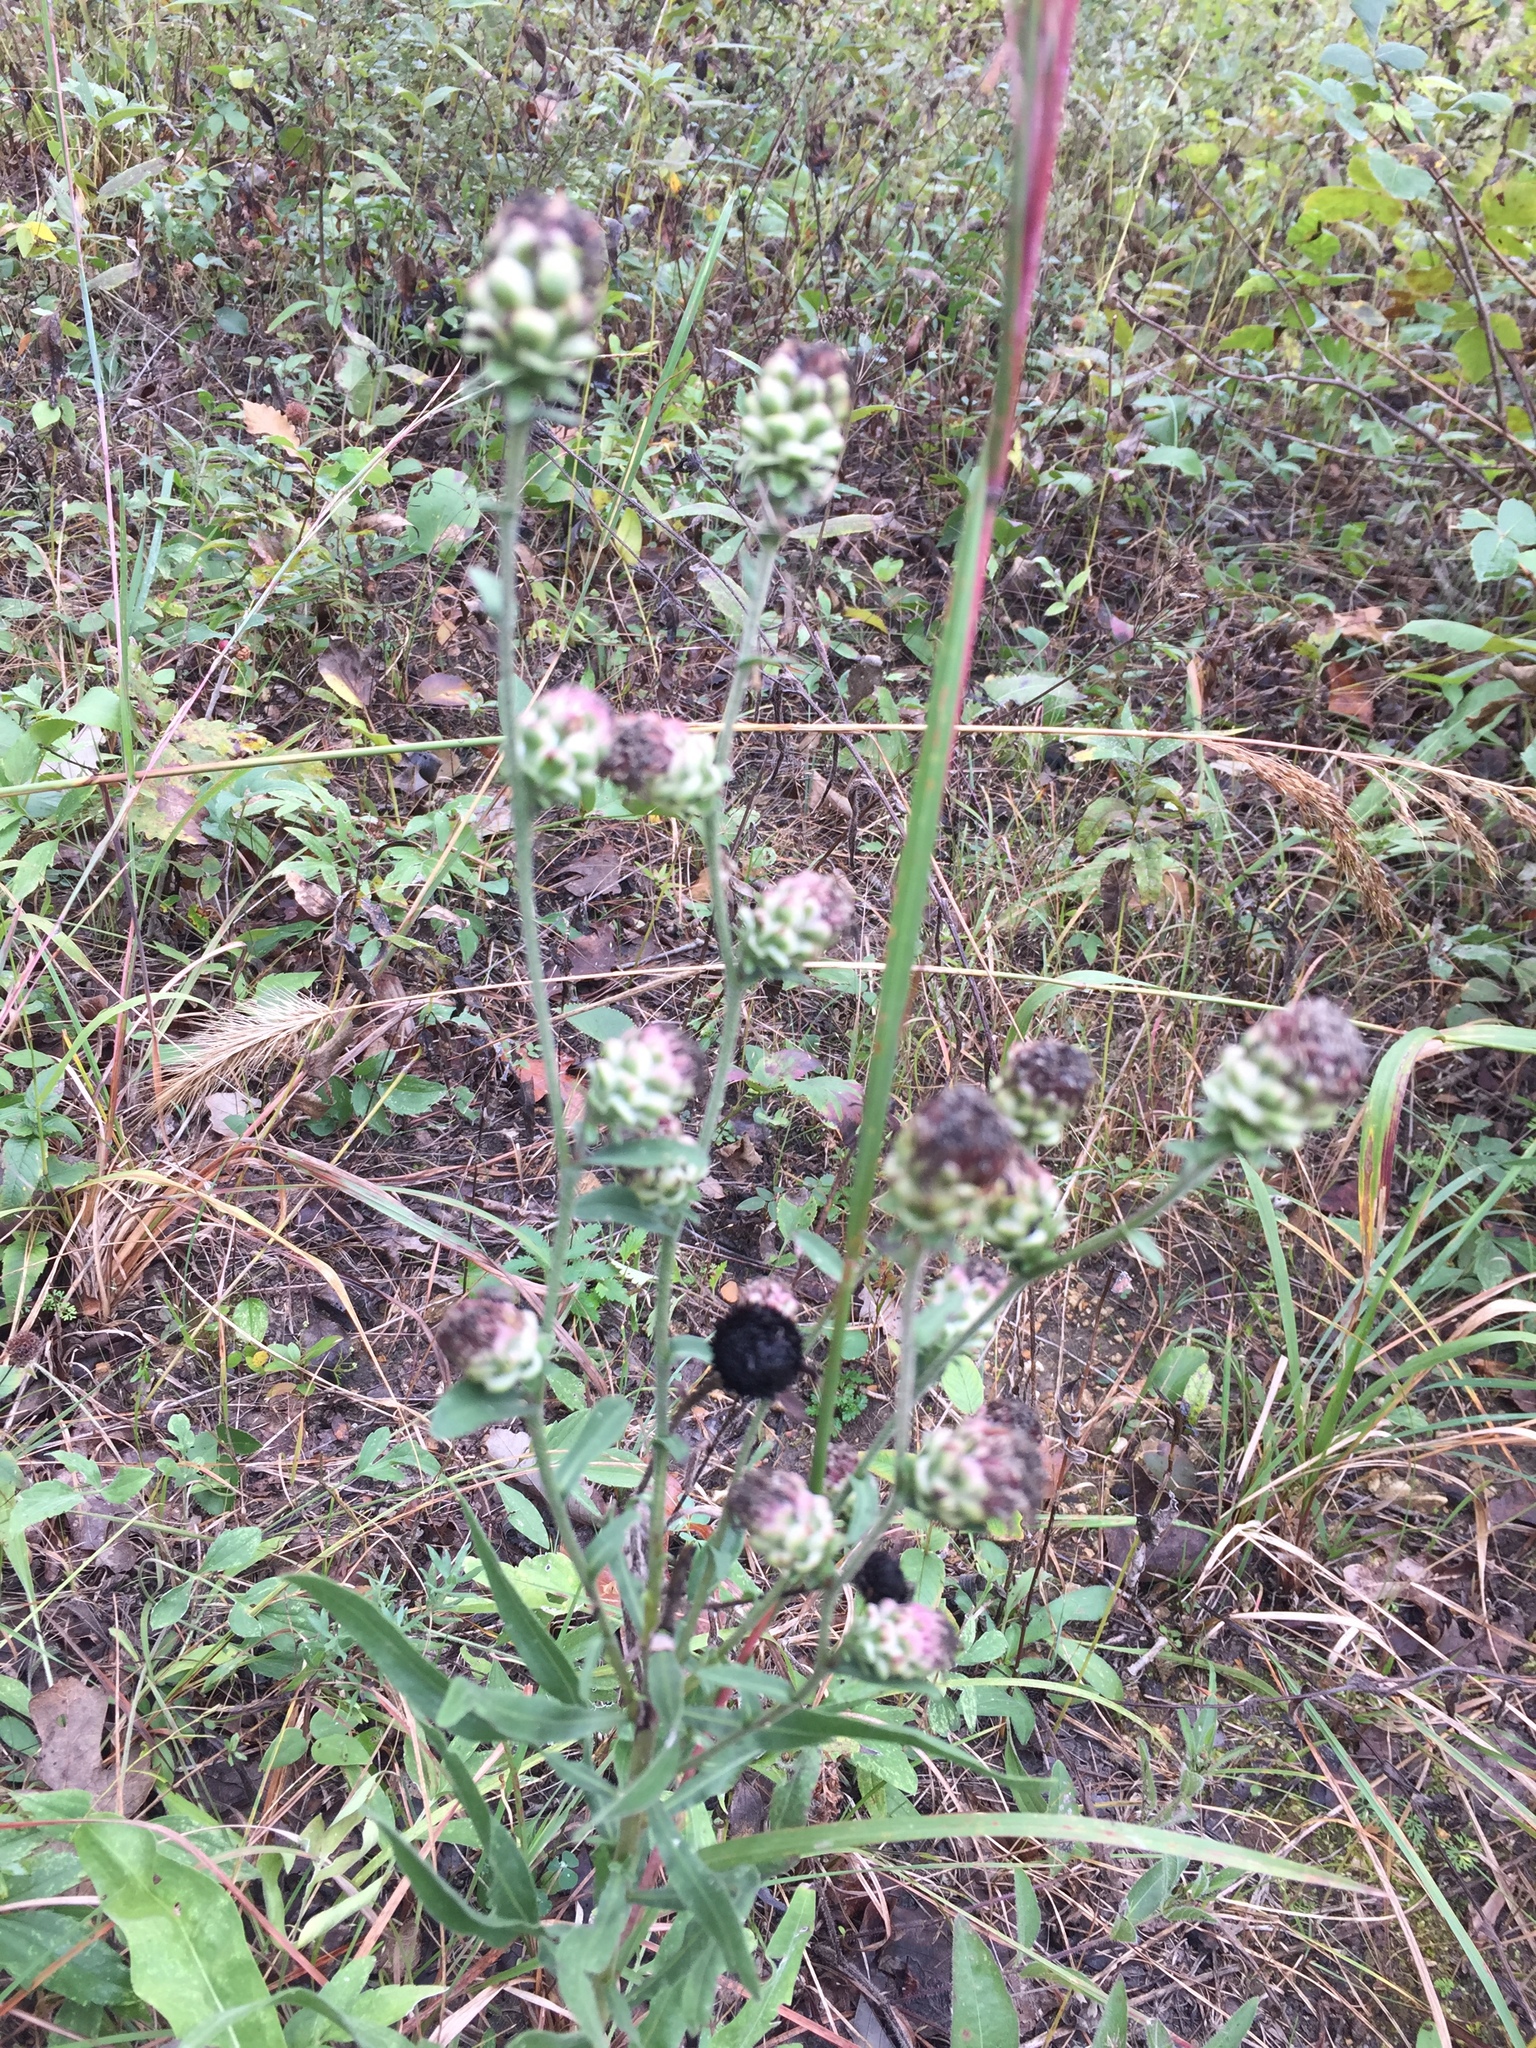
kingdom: Plantae
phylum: Tracheophyta
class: Magnoliopsida
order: Asterales
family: Asteraceae
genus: Liatris
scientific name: Liatris aspera
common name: Lacerate blazing-star
